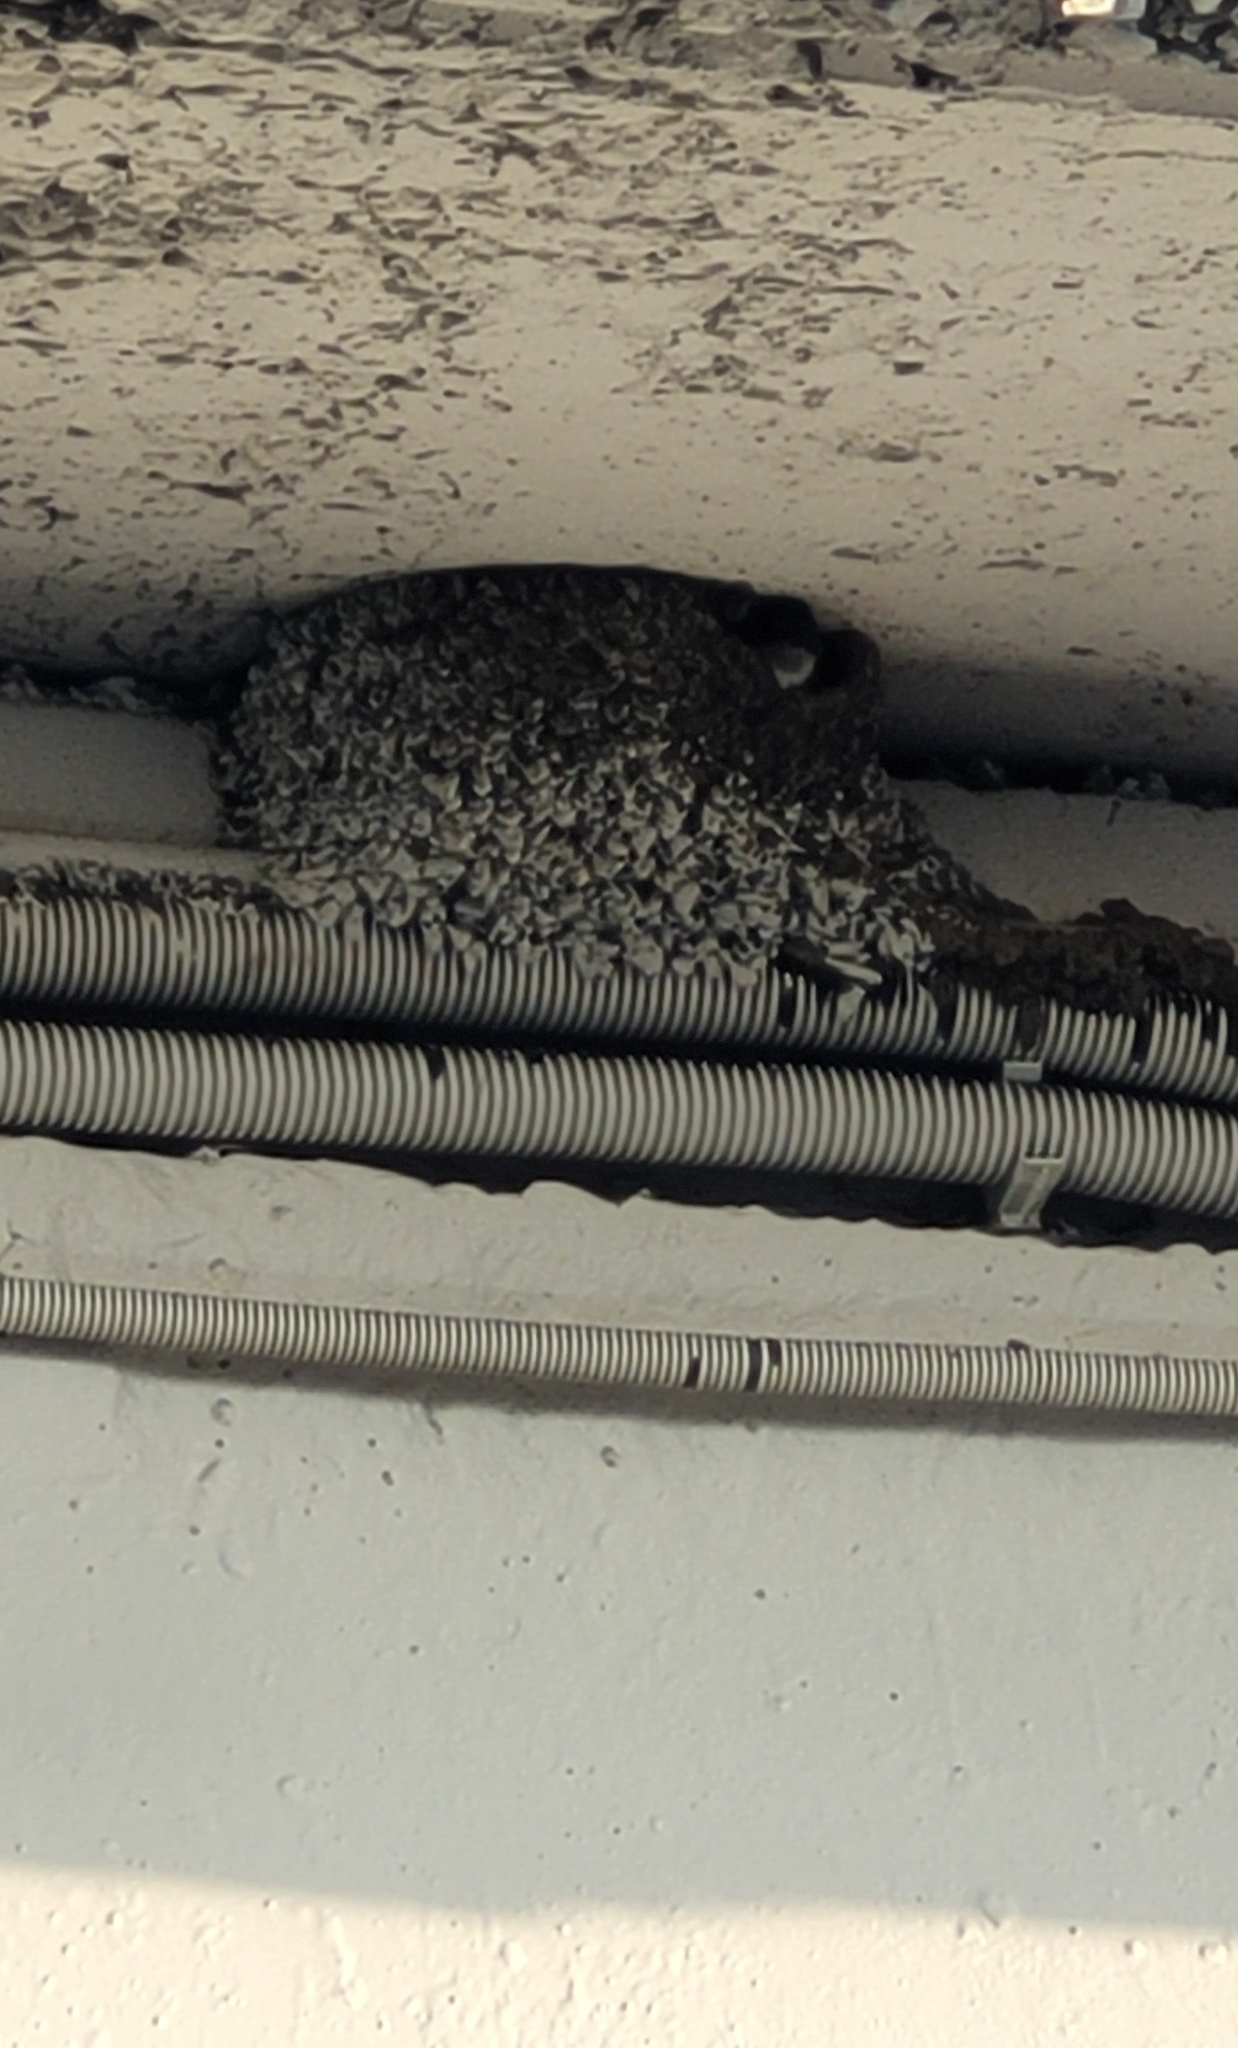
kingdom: Animalia
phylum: Chordata
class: Aves
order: Passeriformes
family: Hirundinidae
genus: Delichon
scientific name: Delichon urbicum
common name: Common house martin
